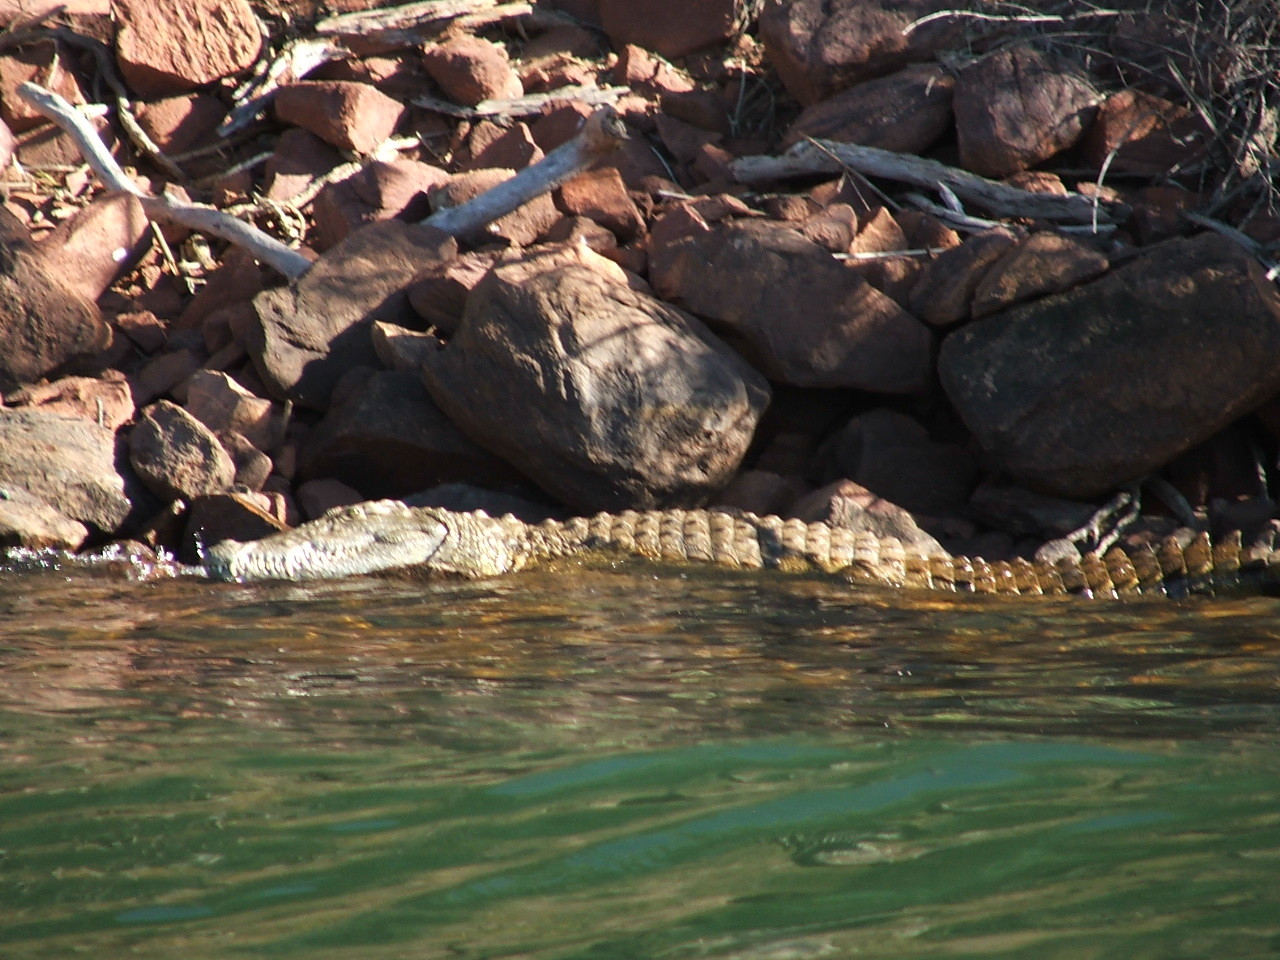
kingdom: Animalia
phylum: Chordata
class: Crocodylia
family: Crocodylidae
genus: Crocodylus
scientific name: Crocodylus niloticus
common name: Nile crocodile
